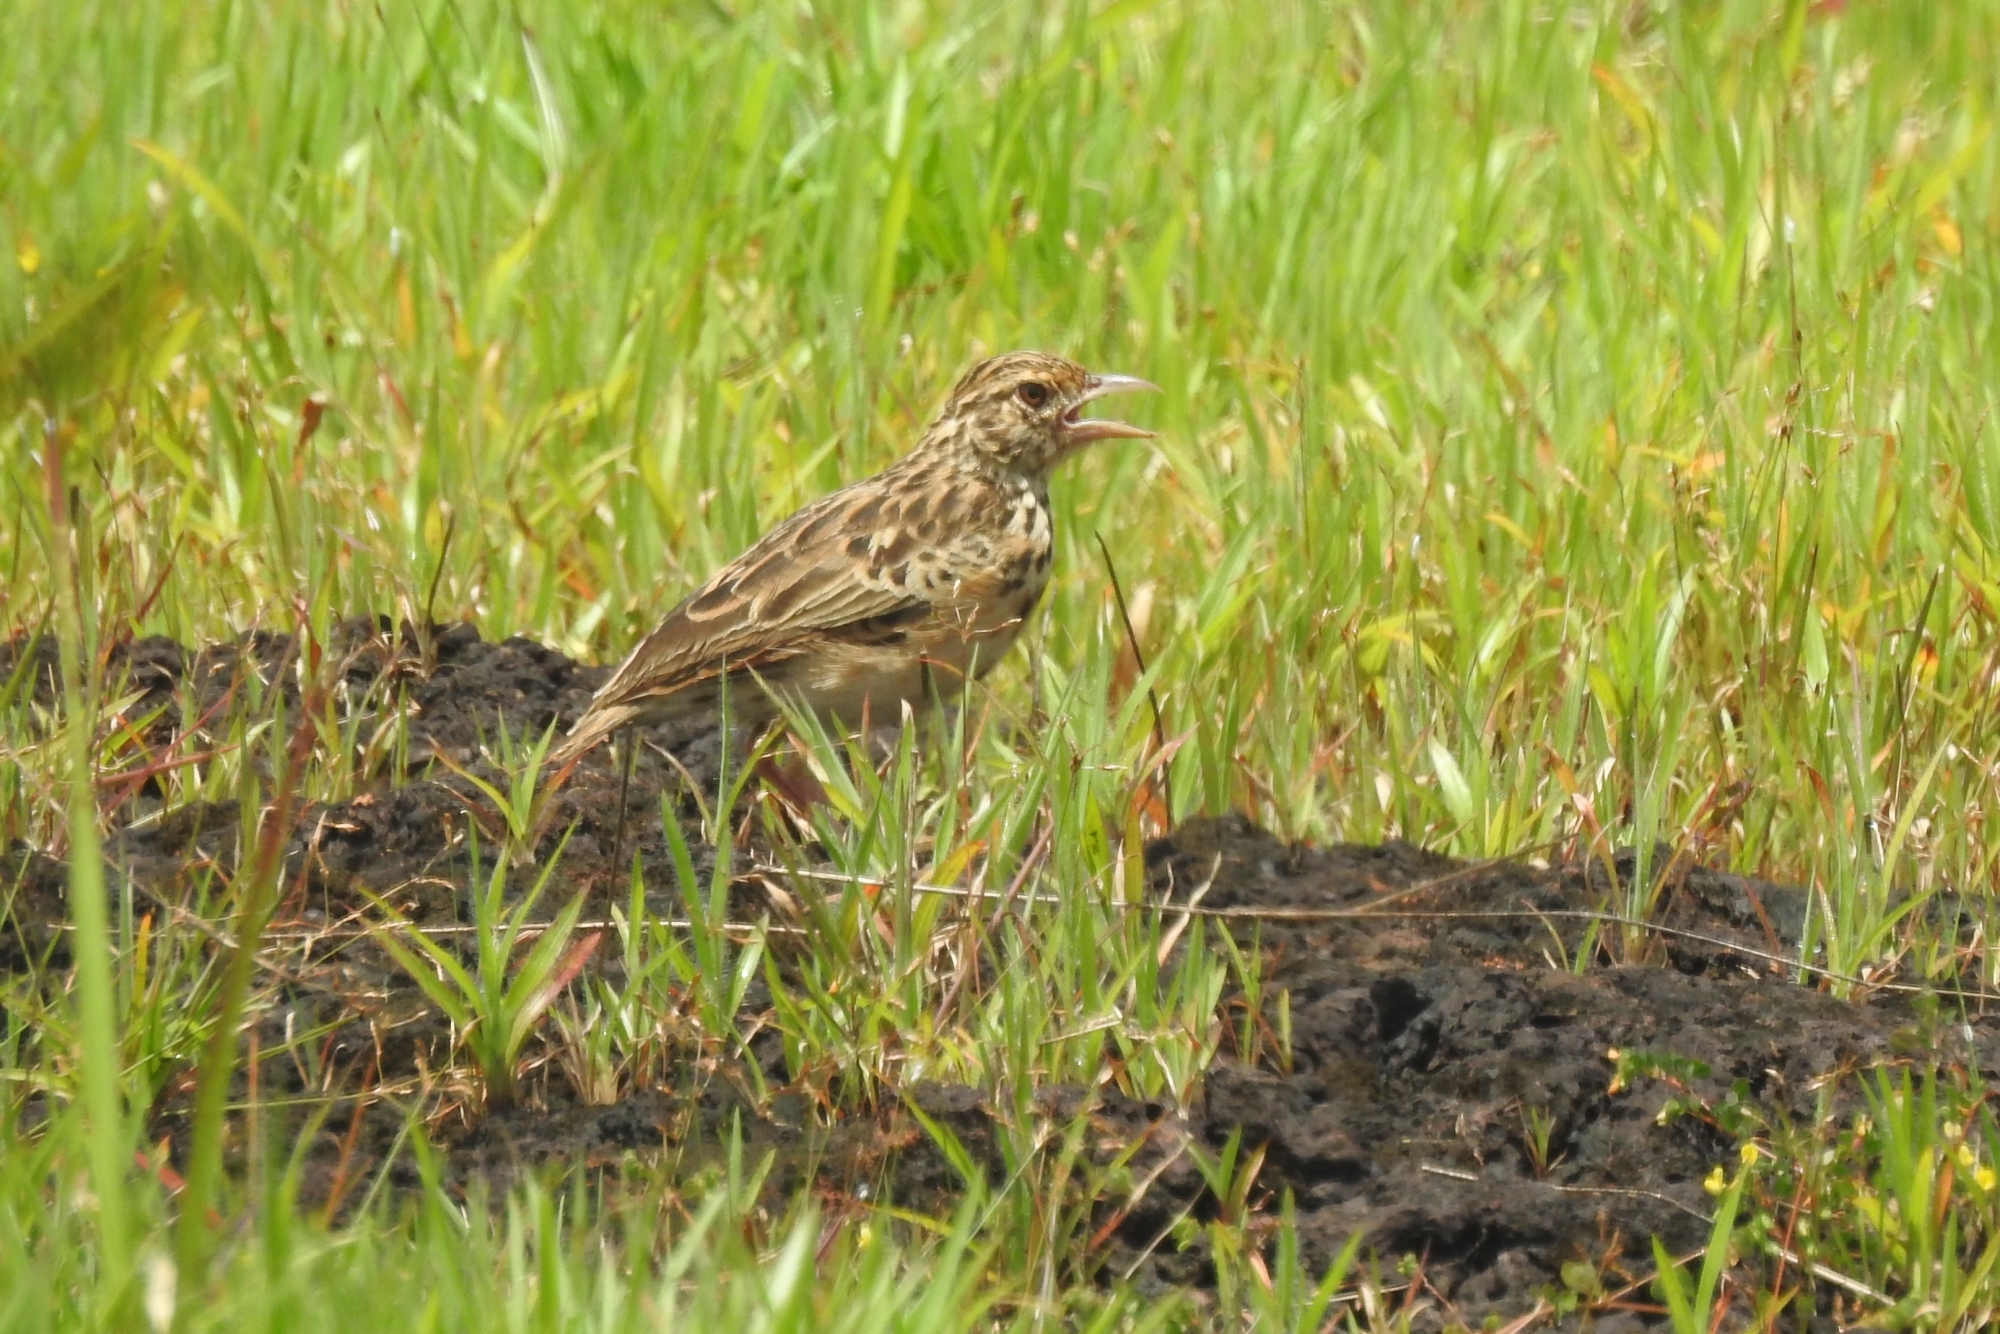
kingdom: Animalia
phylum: Chordata
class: Aves
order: Passeriformes
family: Alaudidae
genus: Mirafra
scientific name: Mirafra affinis
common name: Jerdon's bushlark
